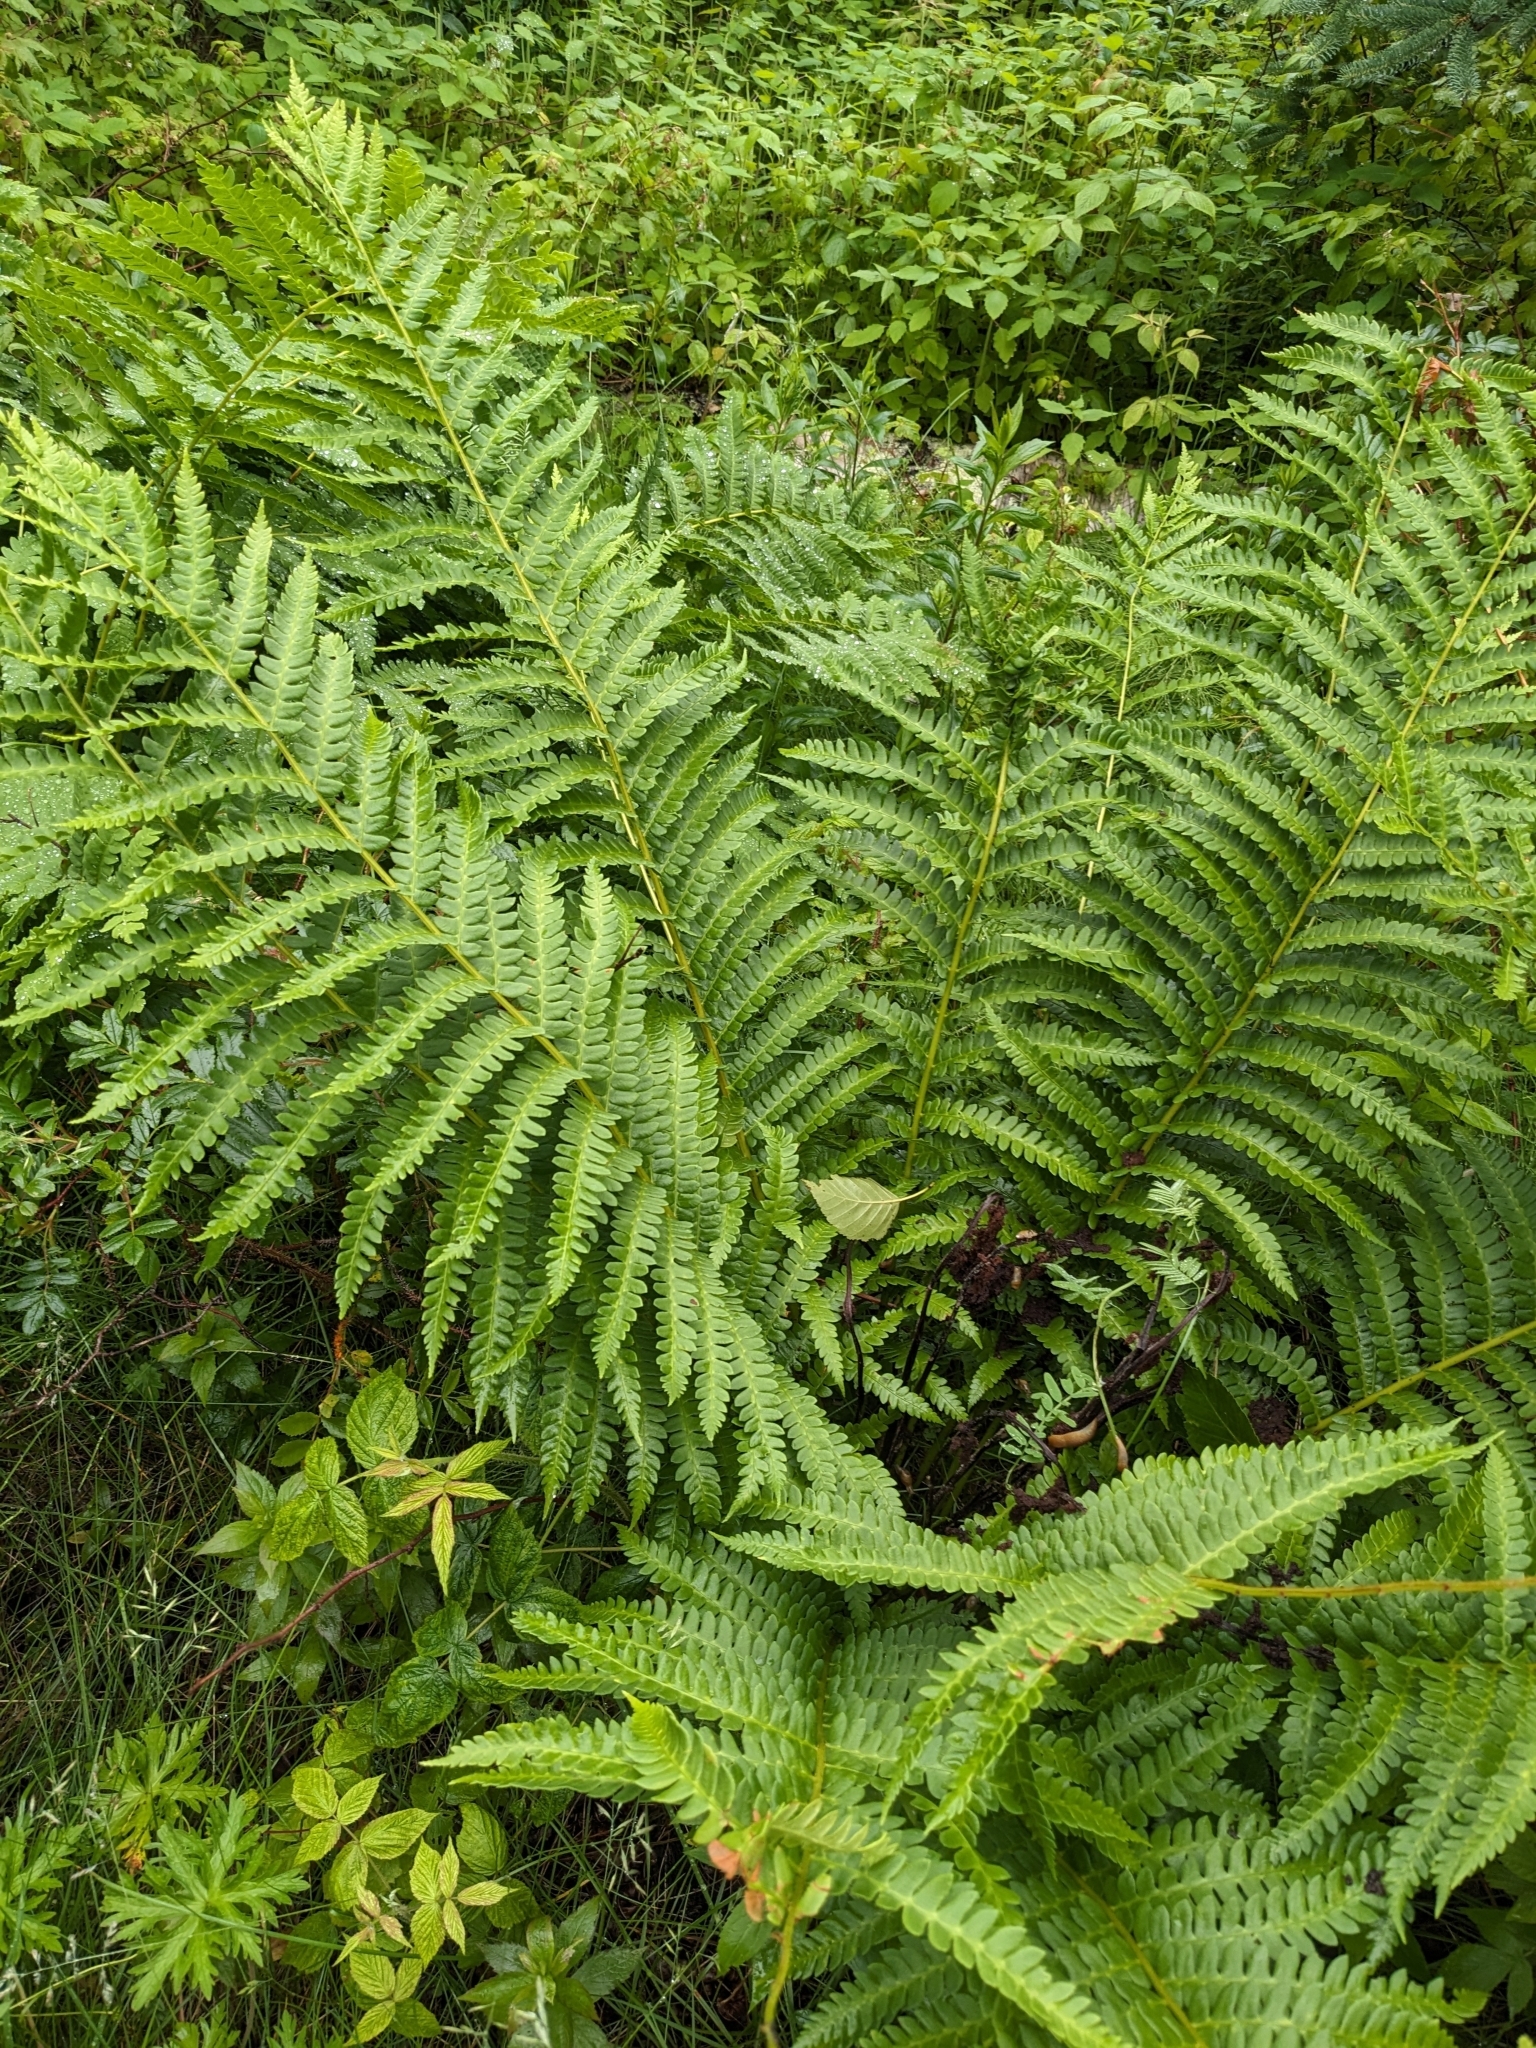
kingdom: Plantae
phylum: Tracheophyta
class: Polypodiopsida
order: Osmundales
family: Osmundaceae
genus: Osmundastrum
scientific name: Osmundastrum cinnamomeum
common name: Cinnamon fern
